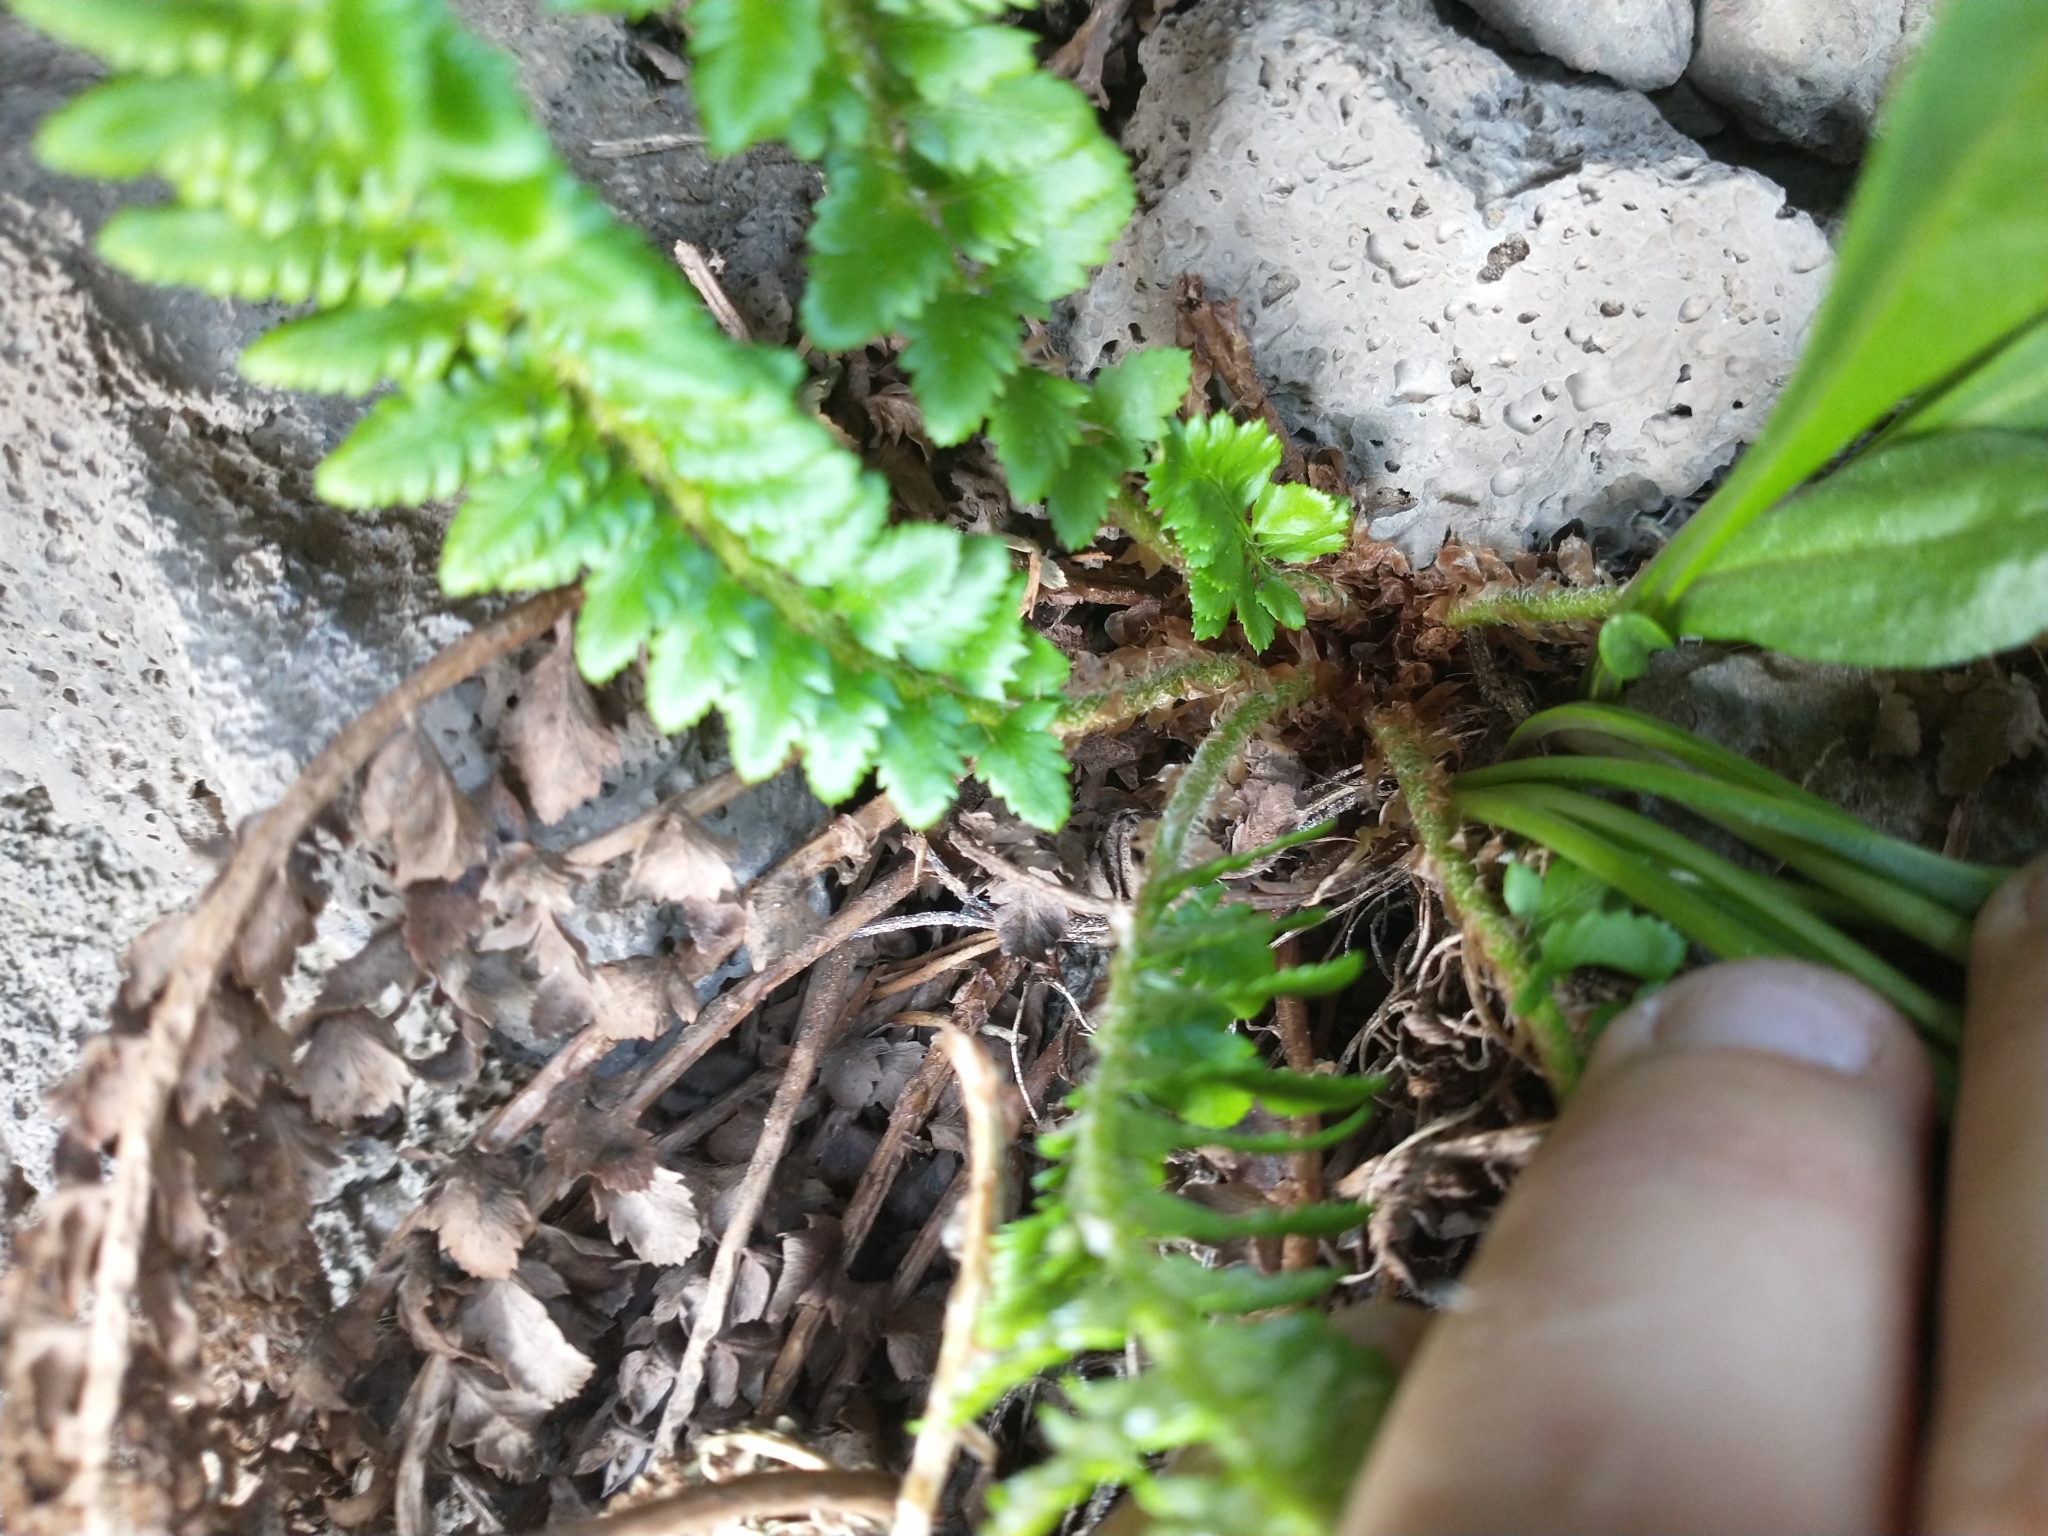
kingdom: Plantae
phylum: Tracheophyta
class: Polypodiopsida
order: Polypodiales
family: Dryopteridaceae
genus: Polystichum
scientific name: Polystichum scopulinum
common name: Eaton's shield fern
